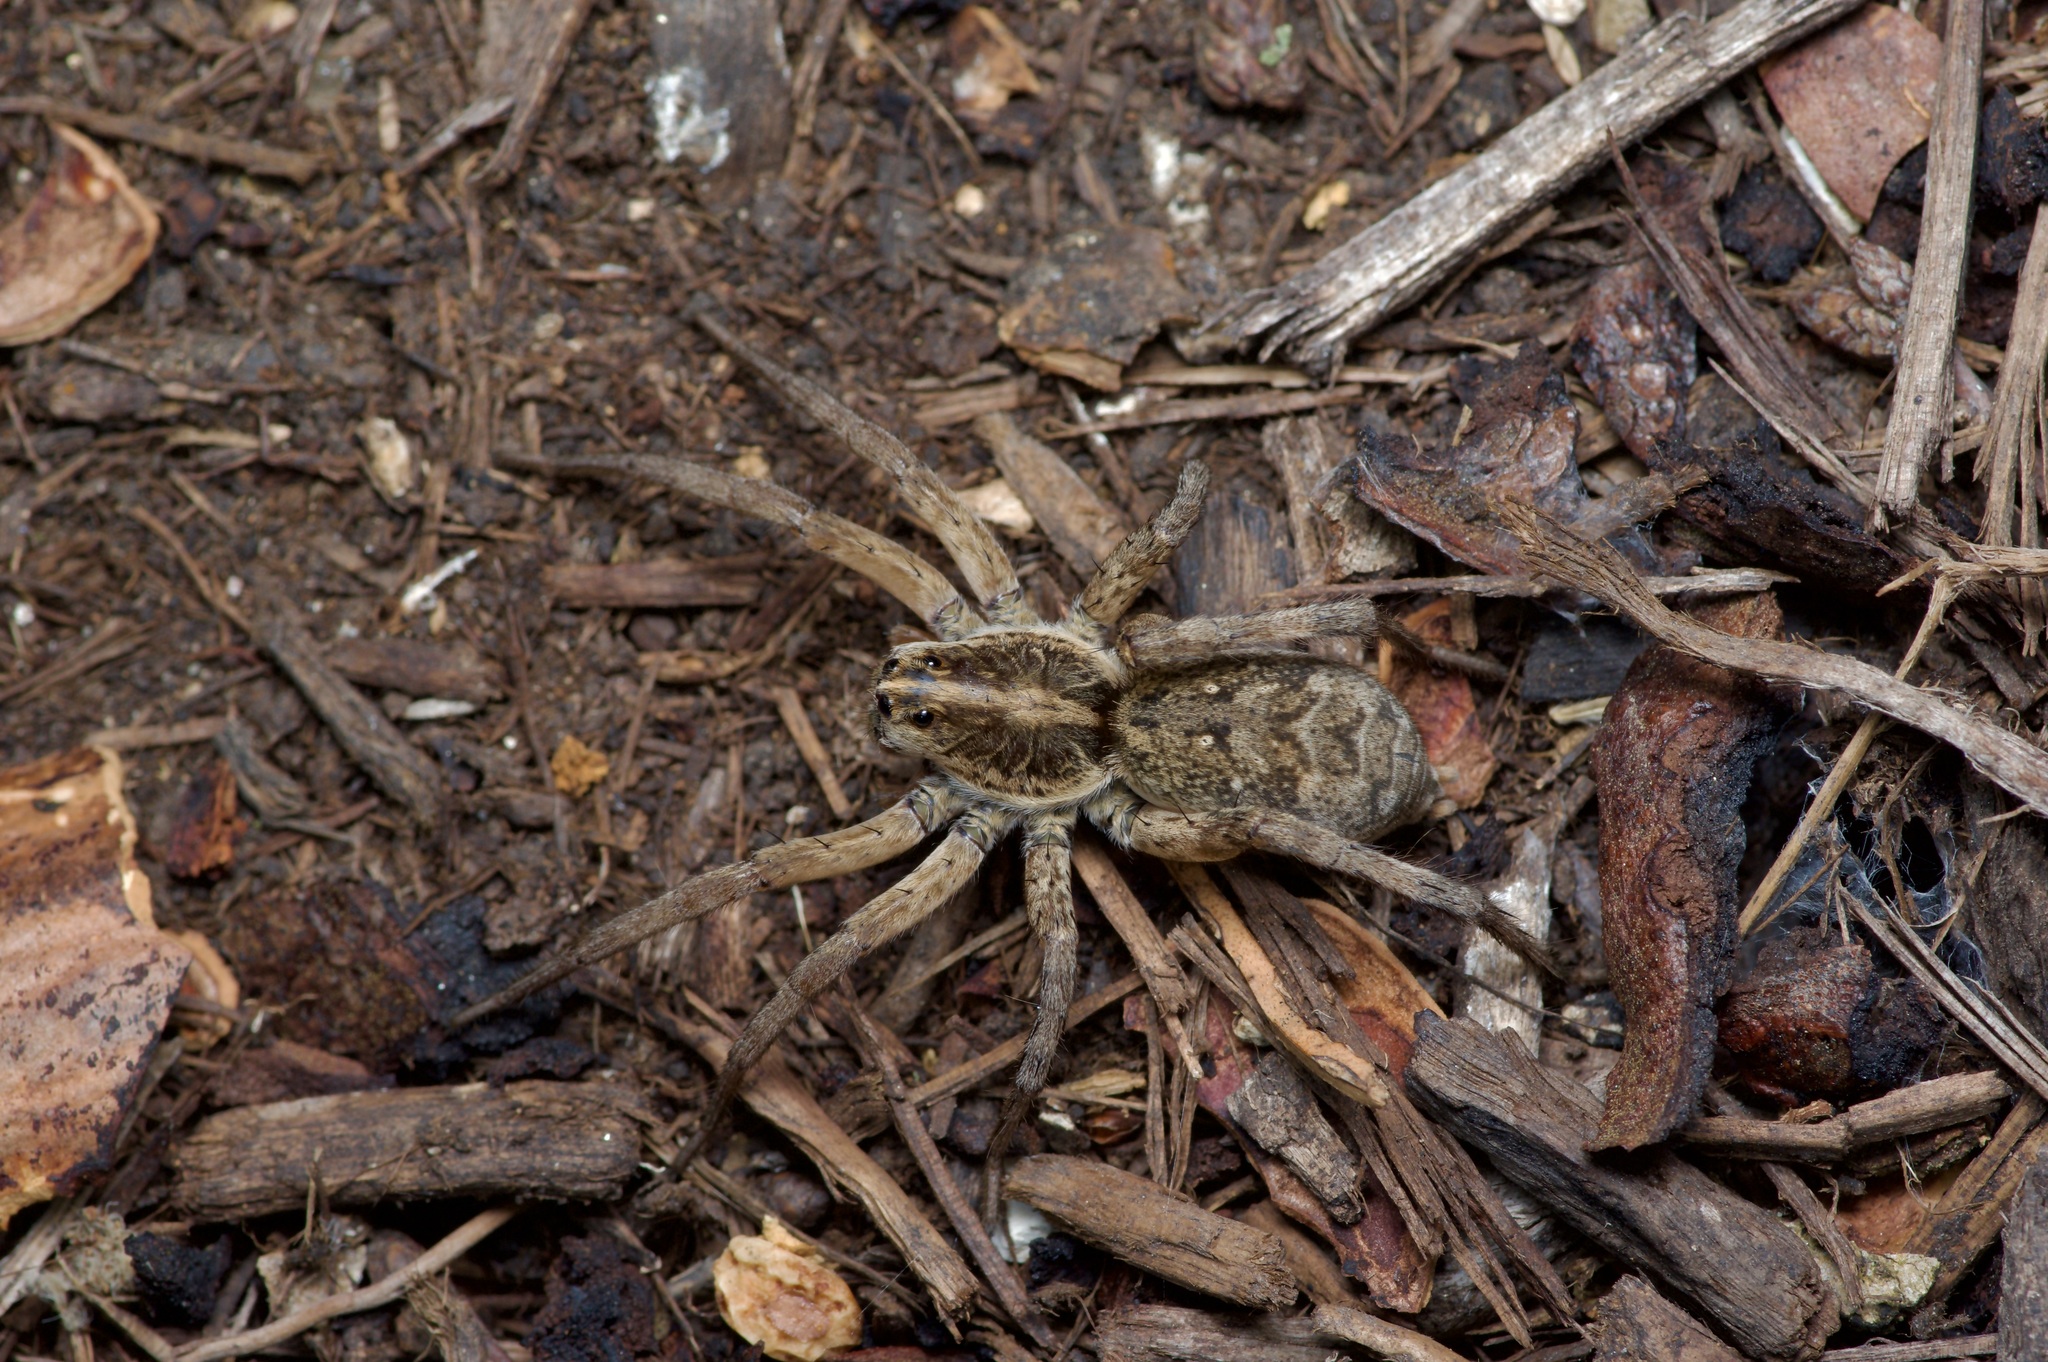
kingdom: Animalia
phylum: Arthropoda
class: Arachnida
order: Araneae
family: Lycosidae
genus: Hogna
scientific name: Hogna antelucana
